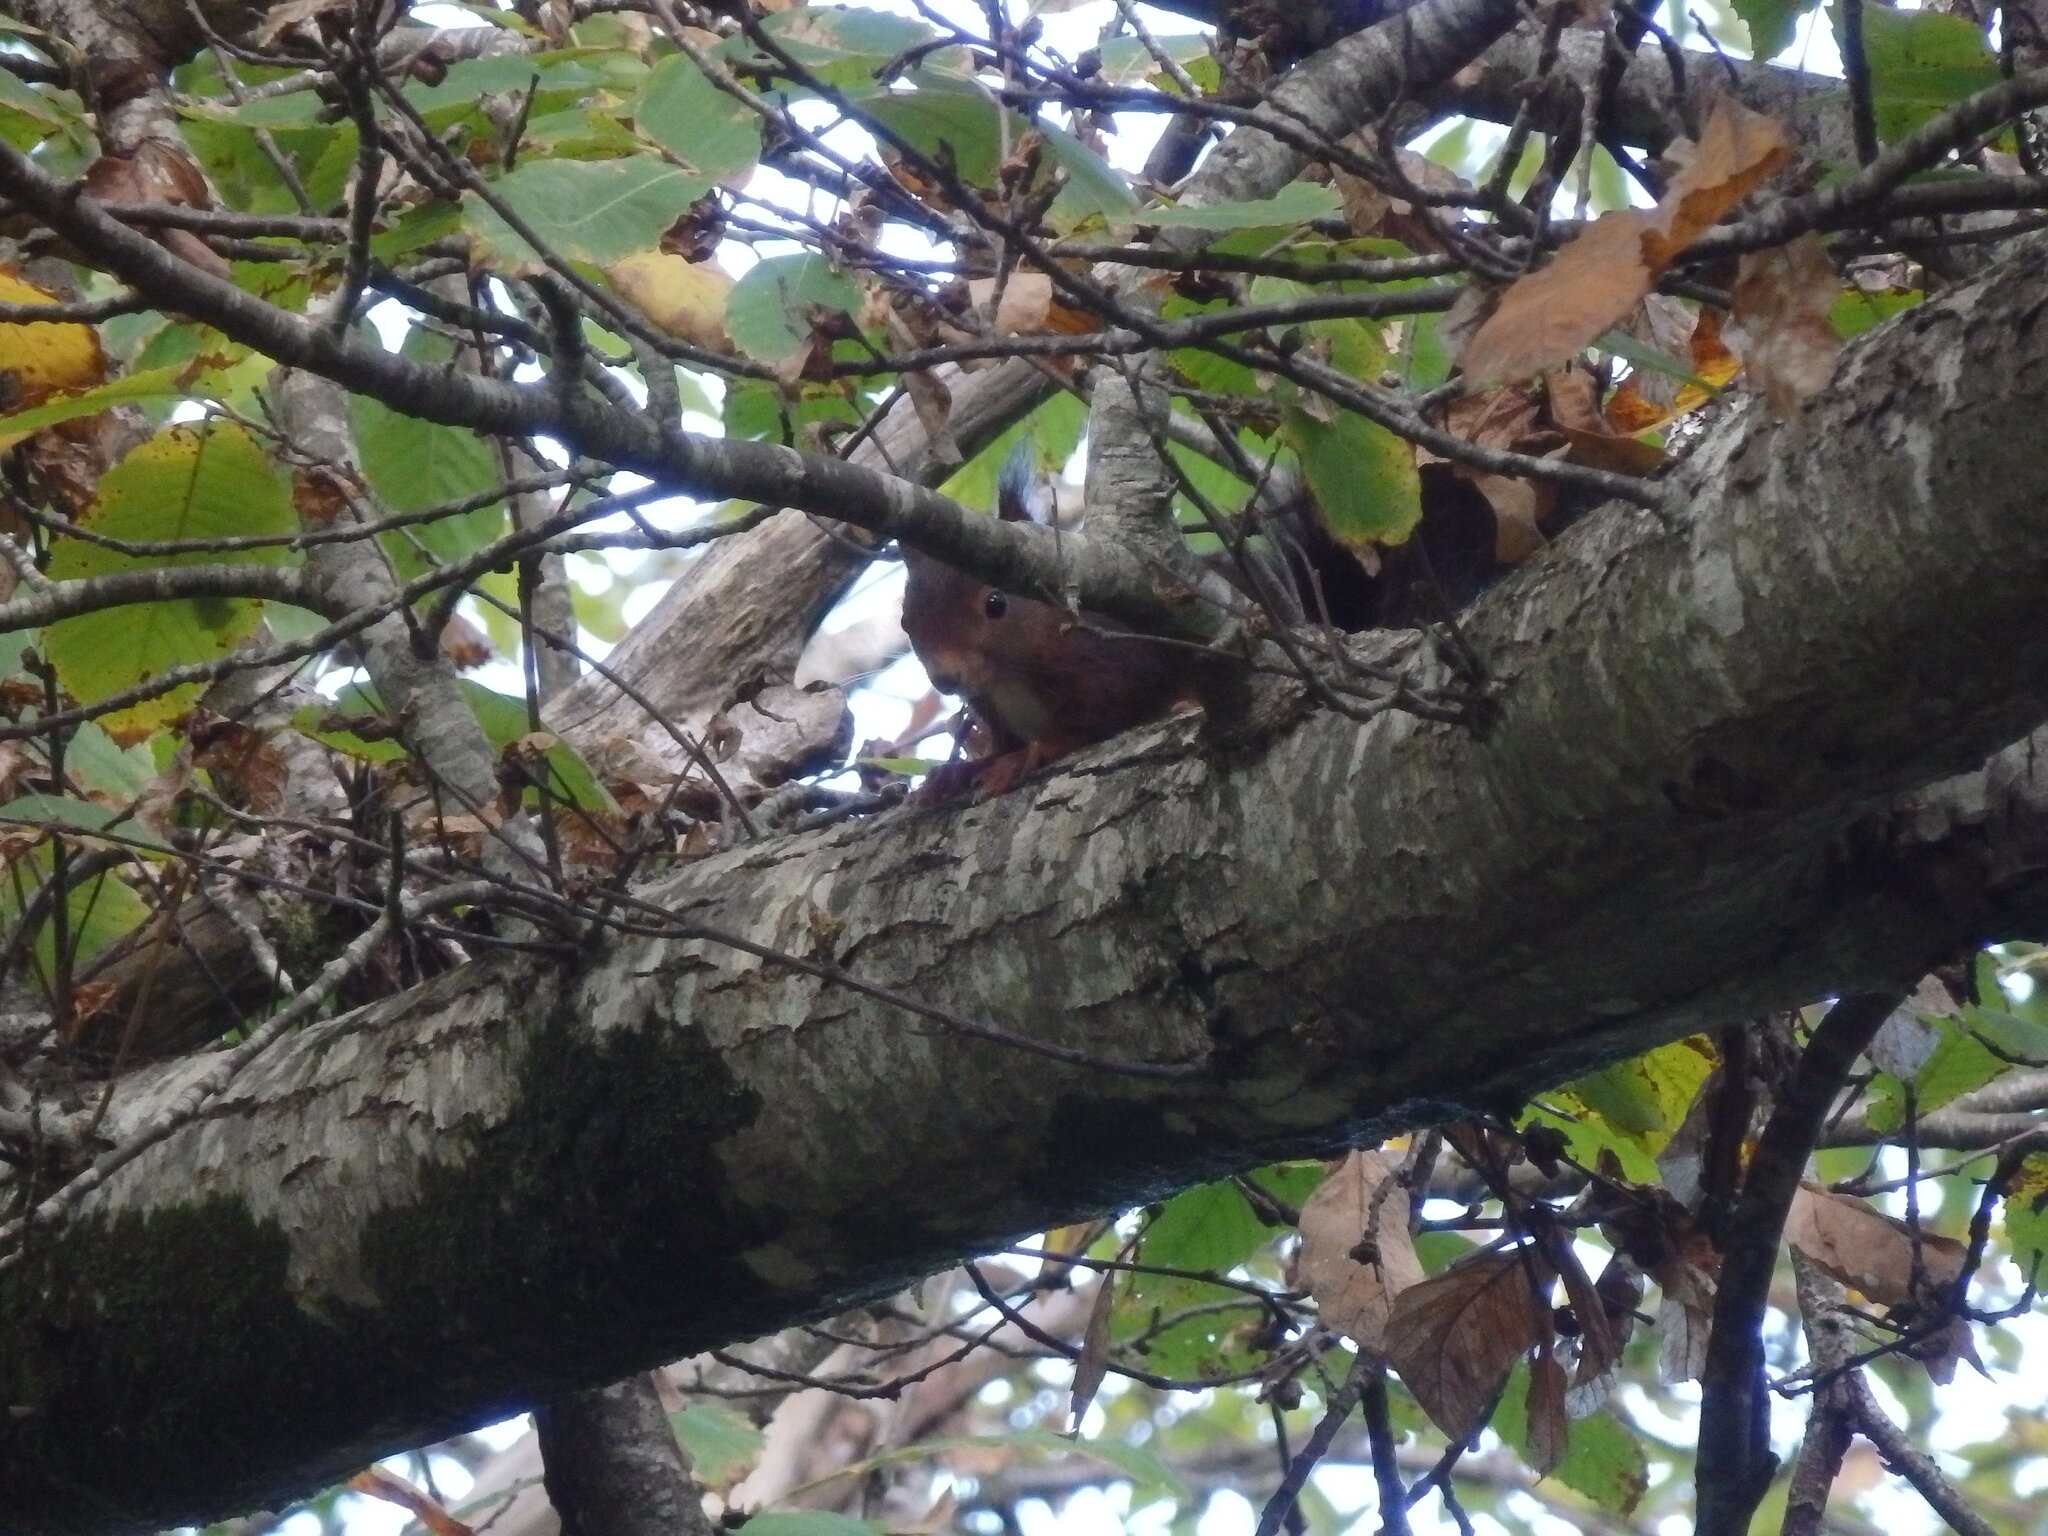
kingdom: Animalia
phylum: Chordata
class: Mammalia
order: Rodentia
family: Sciuridae
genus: Sciurus
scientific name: Sciurus vulgaris
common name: Eurasian red squirrel
